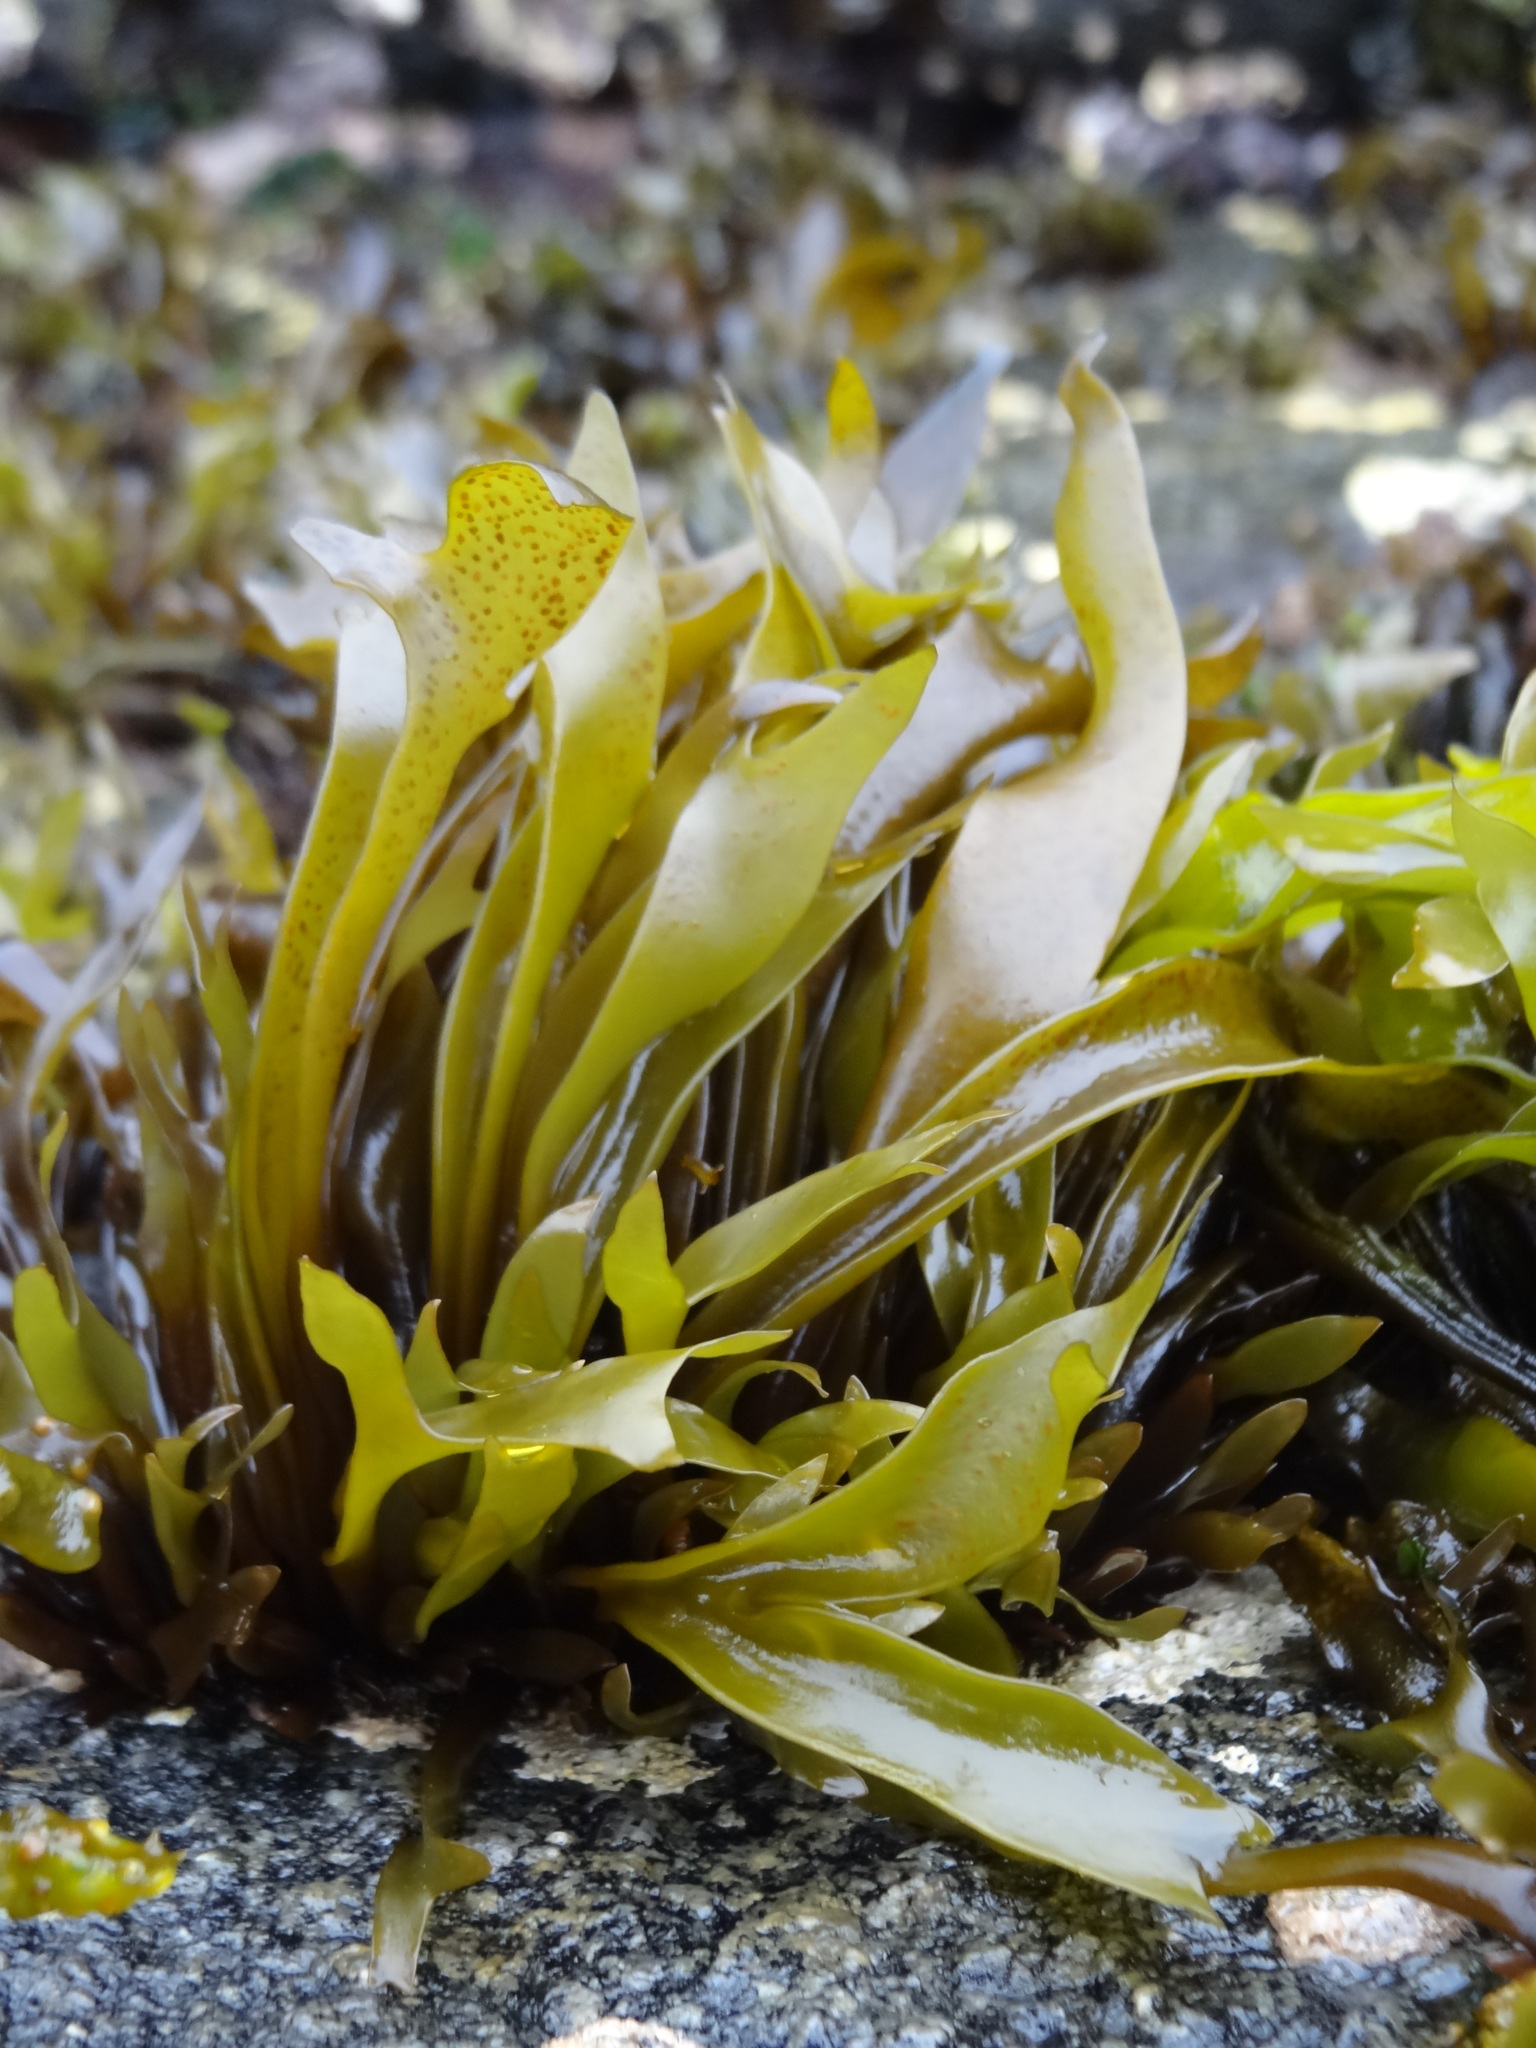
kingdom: Plantae
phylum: Rhodophyta
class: Florideophyceae
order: Gigartinales
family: Gigartinaceae
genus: Mazzaella
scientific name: Mazzaella laminarioides
